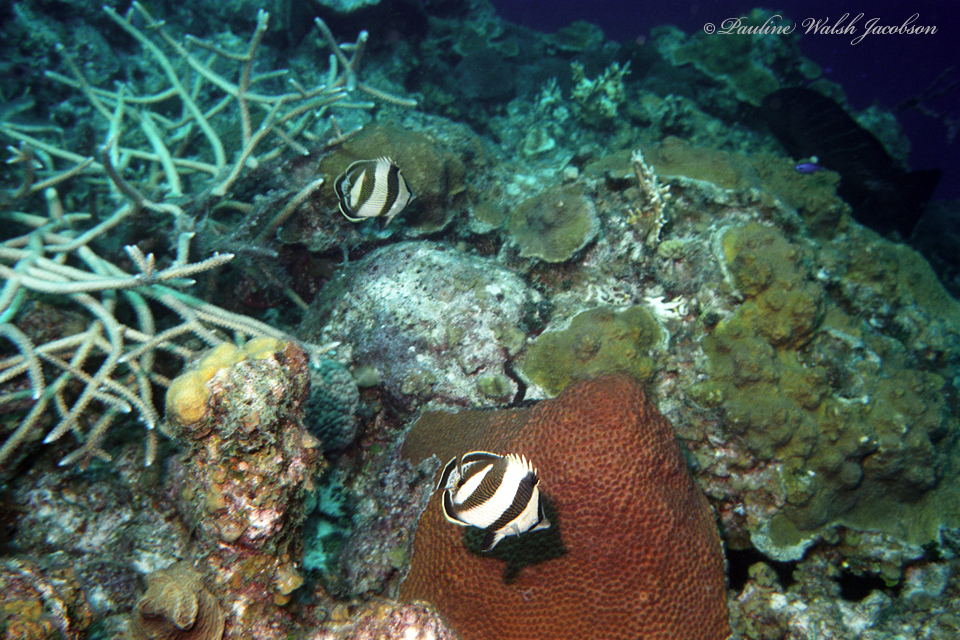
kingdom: Animalia
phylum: Chordata
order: Perciformes
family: Chaetodontidae
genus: Chaetodon
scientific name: Chaetodon striatus
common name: Banded butterflyfish
